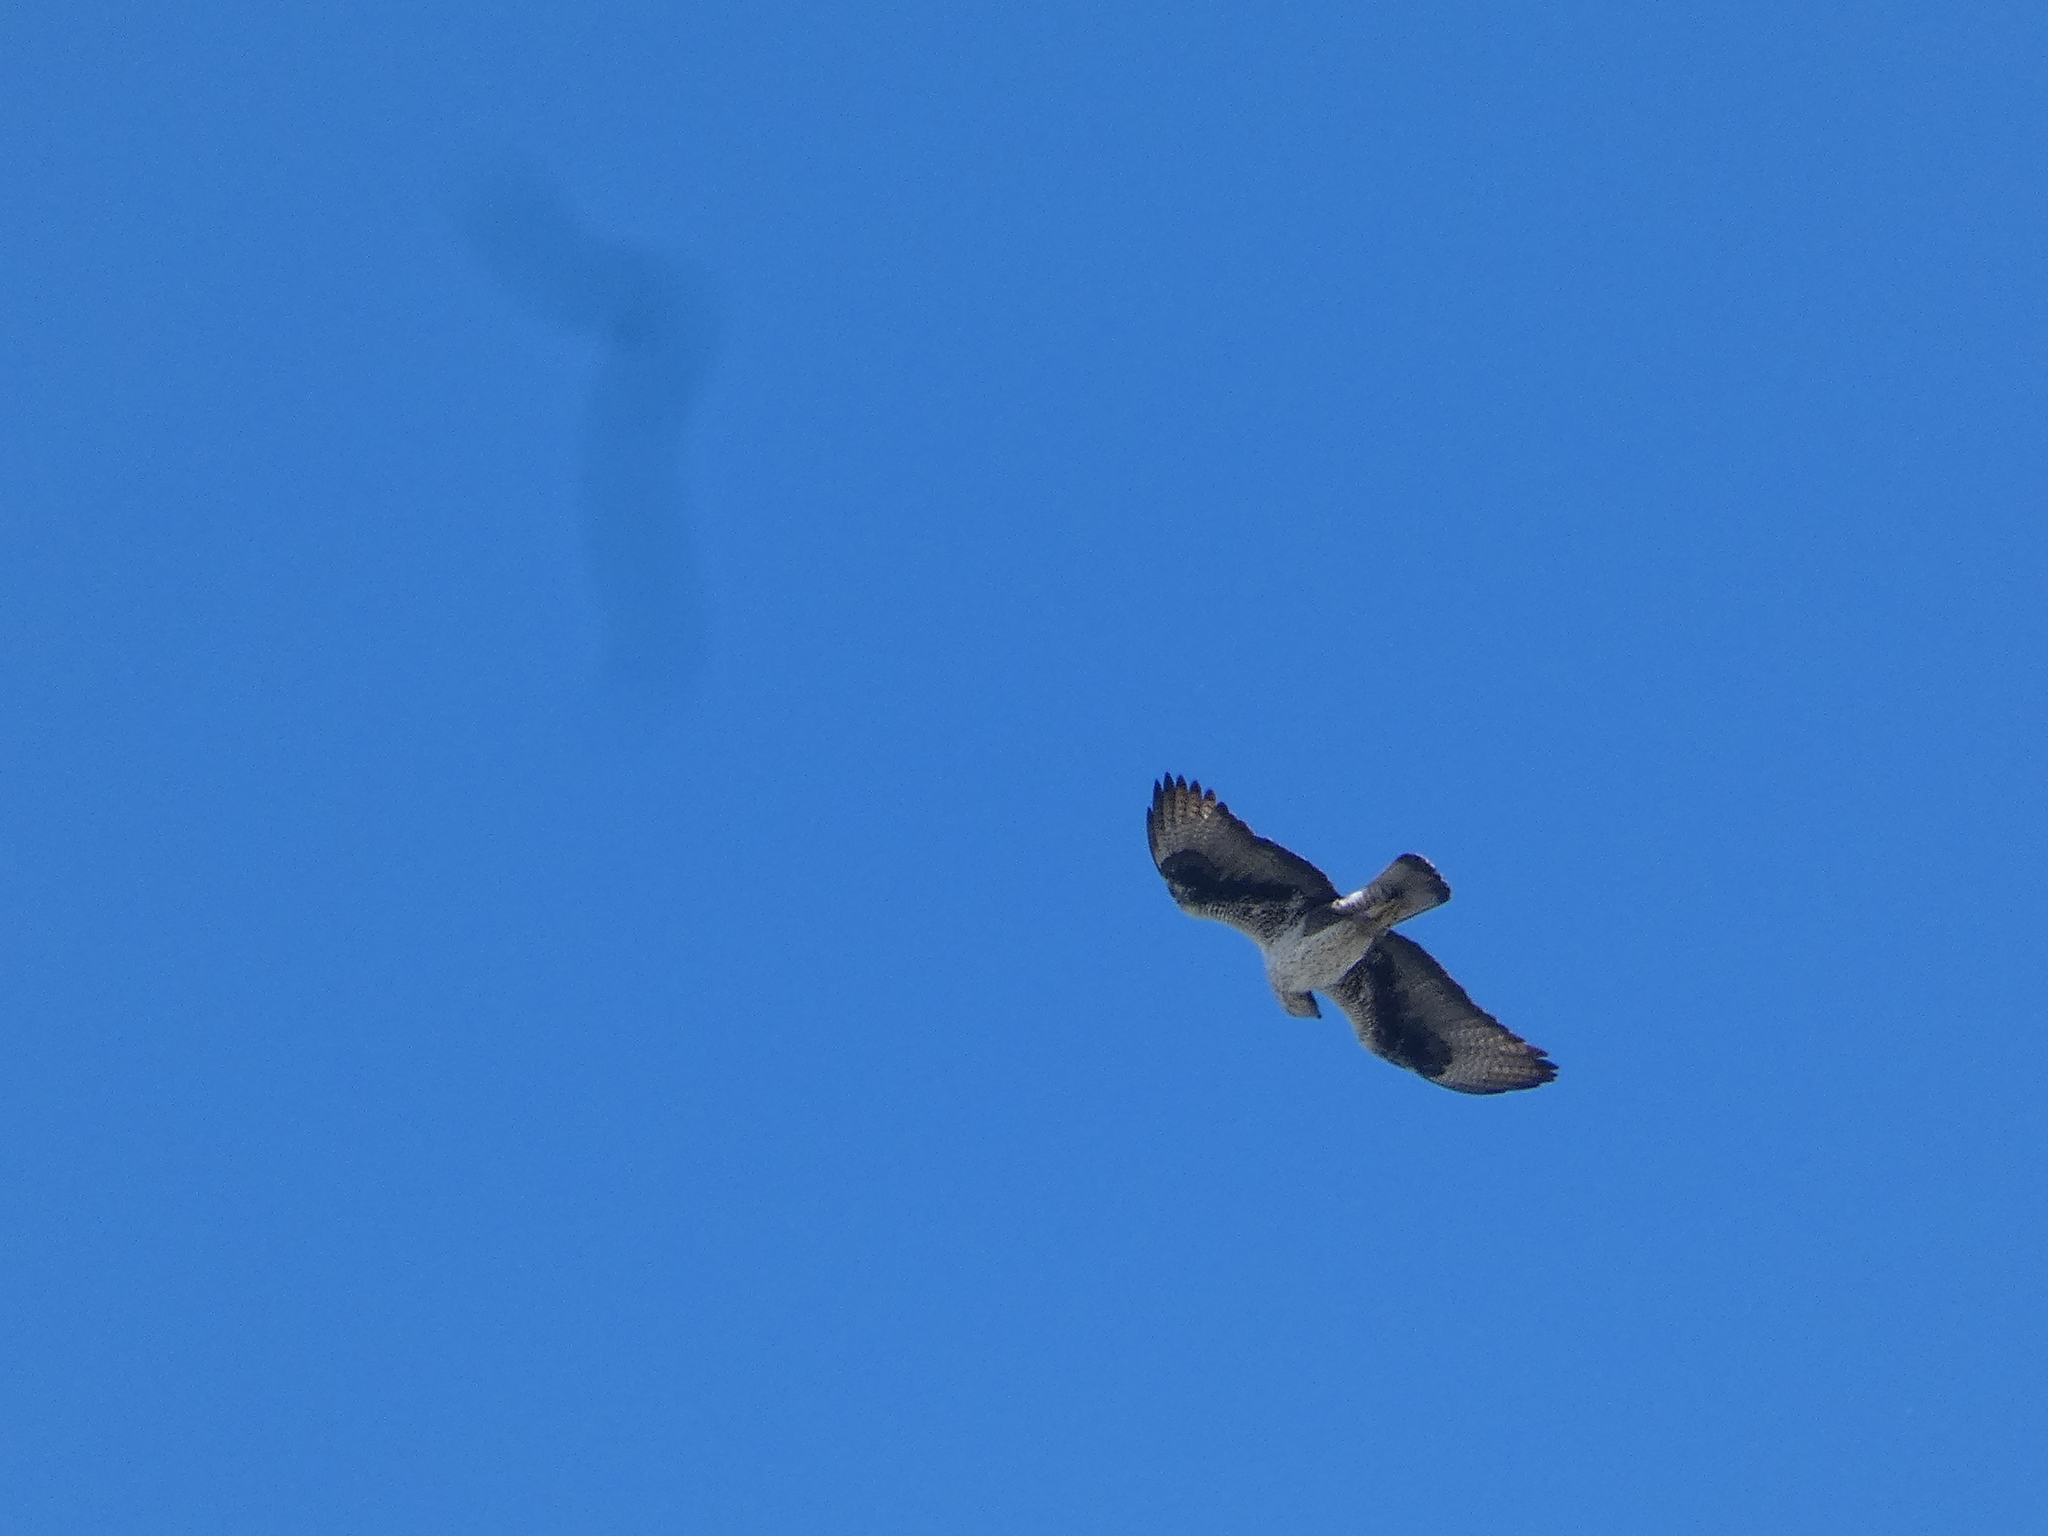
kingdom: Animalia
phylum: Chordata
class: Aves
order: Accipitriformes
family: Accipitridae
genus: Aquila
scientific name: Aquila fasciata
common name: Bonelli's eagle
